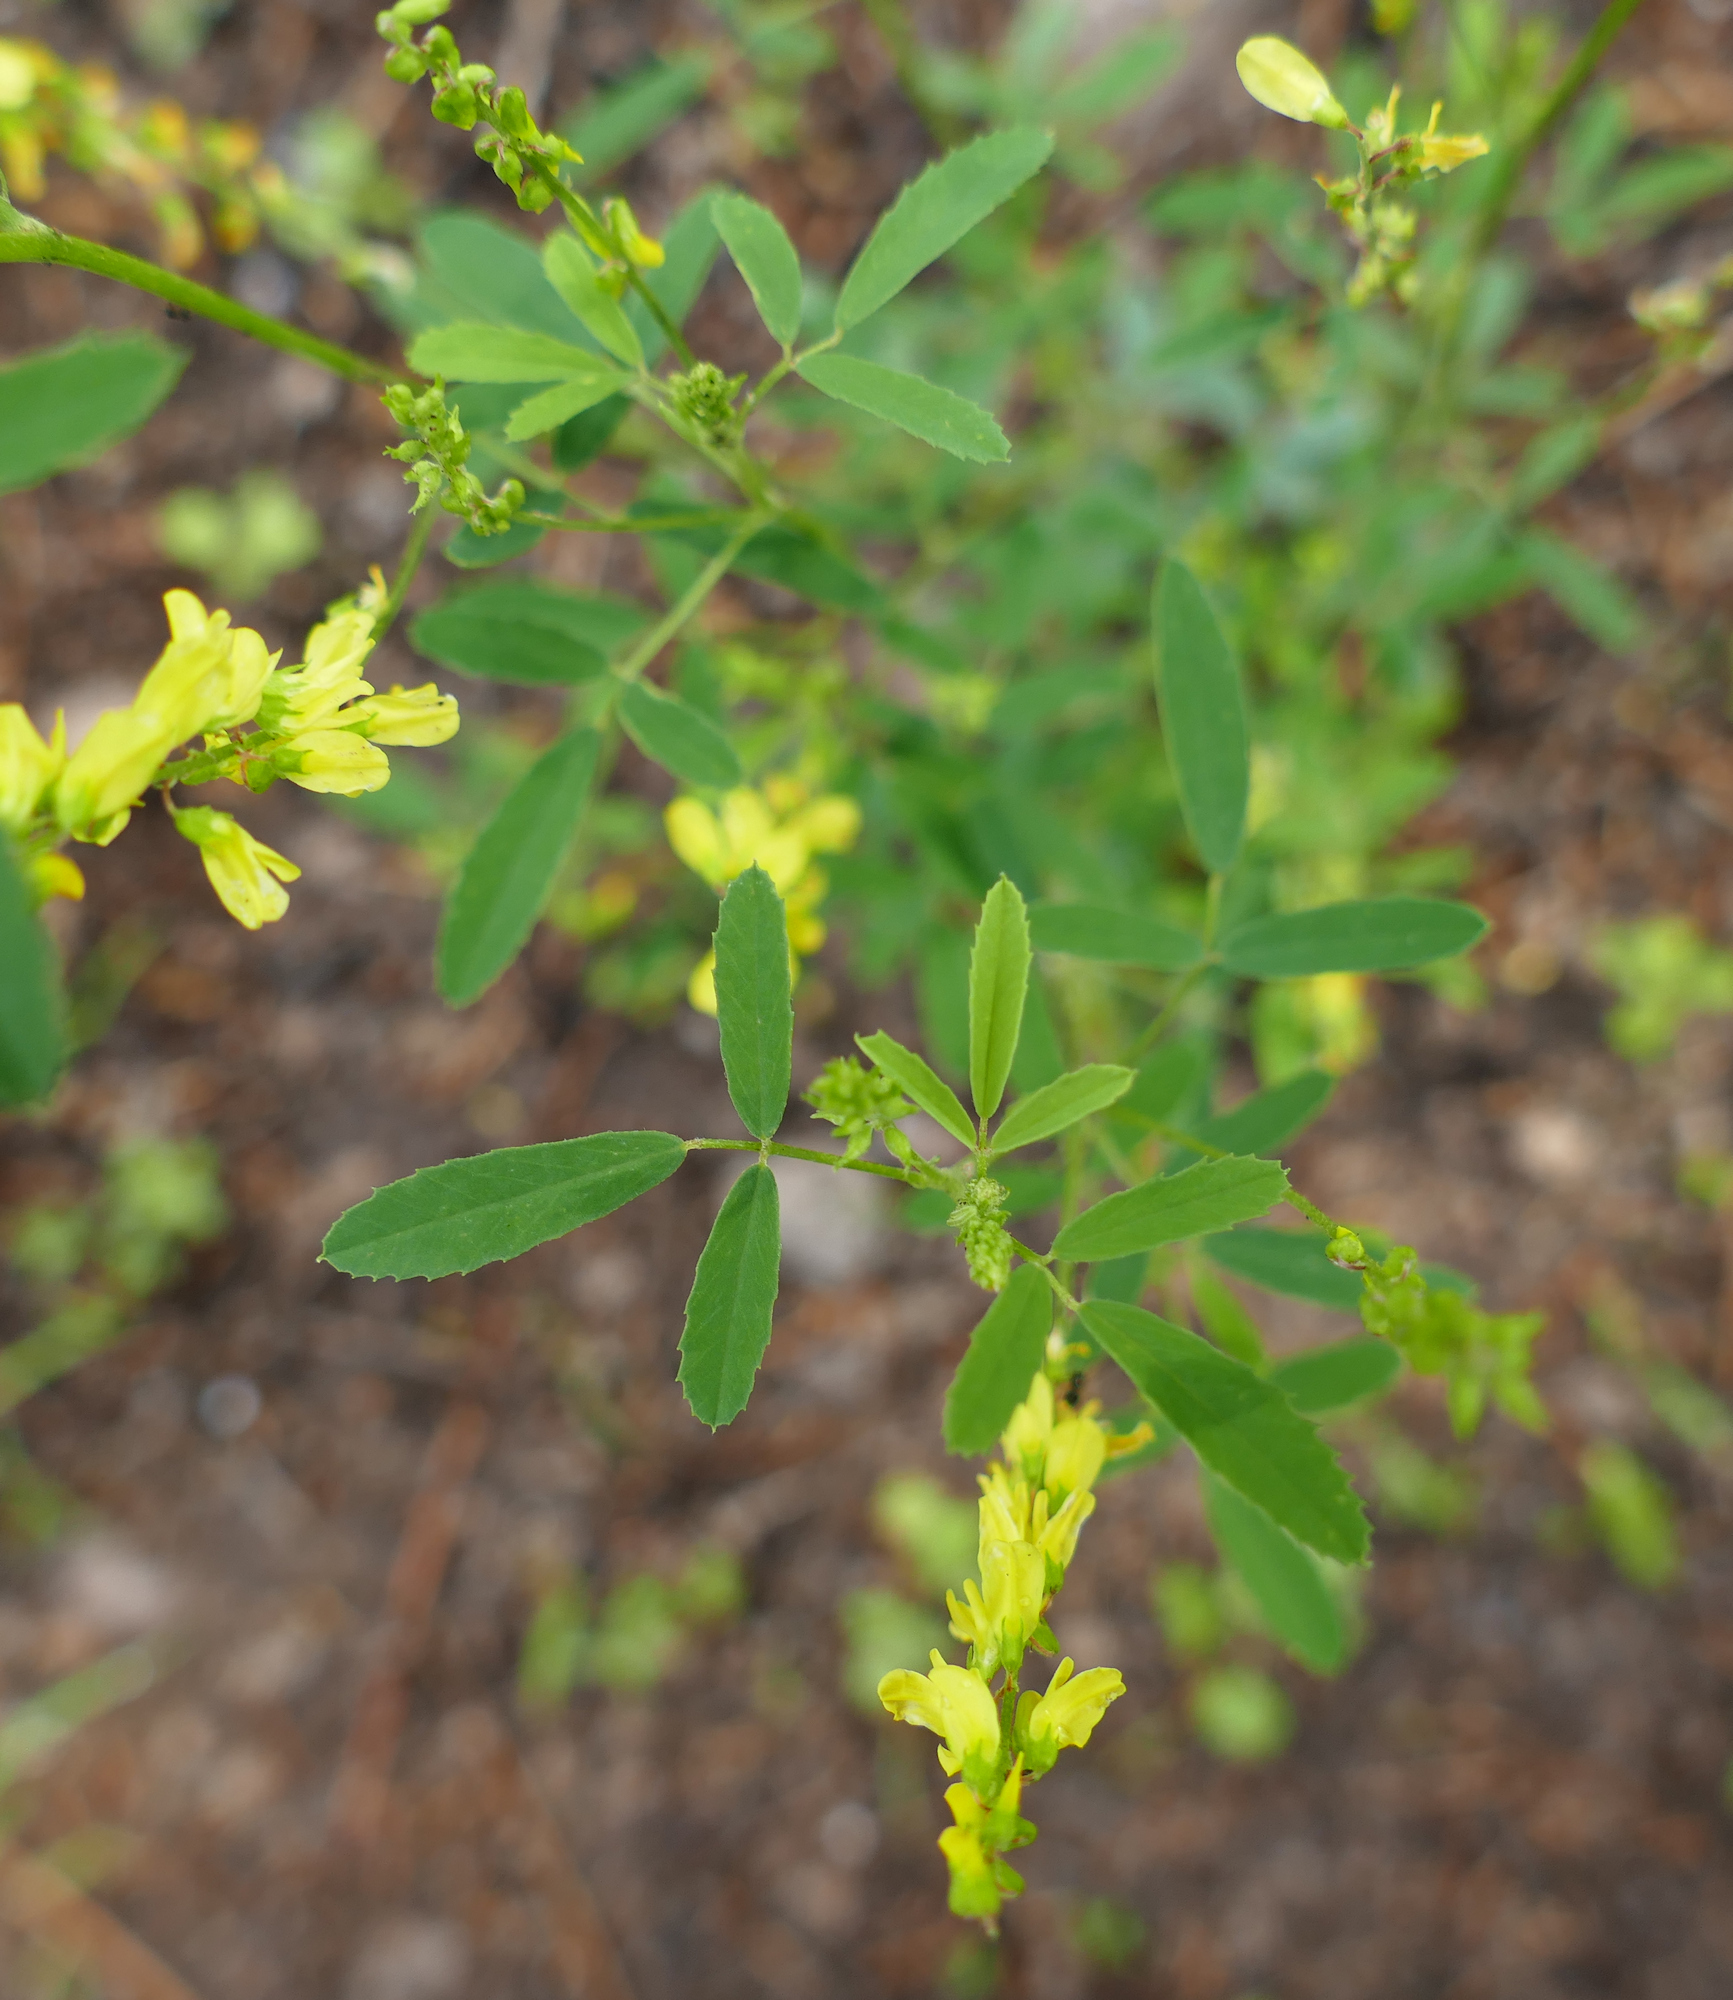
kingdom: Plantae
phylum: Tracheophyta
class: Magnoliopsida
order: Fabales
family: Fabaceae
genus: Melilotus
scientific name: Melilotus officinalis
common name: Sweetclover
